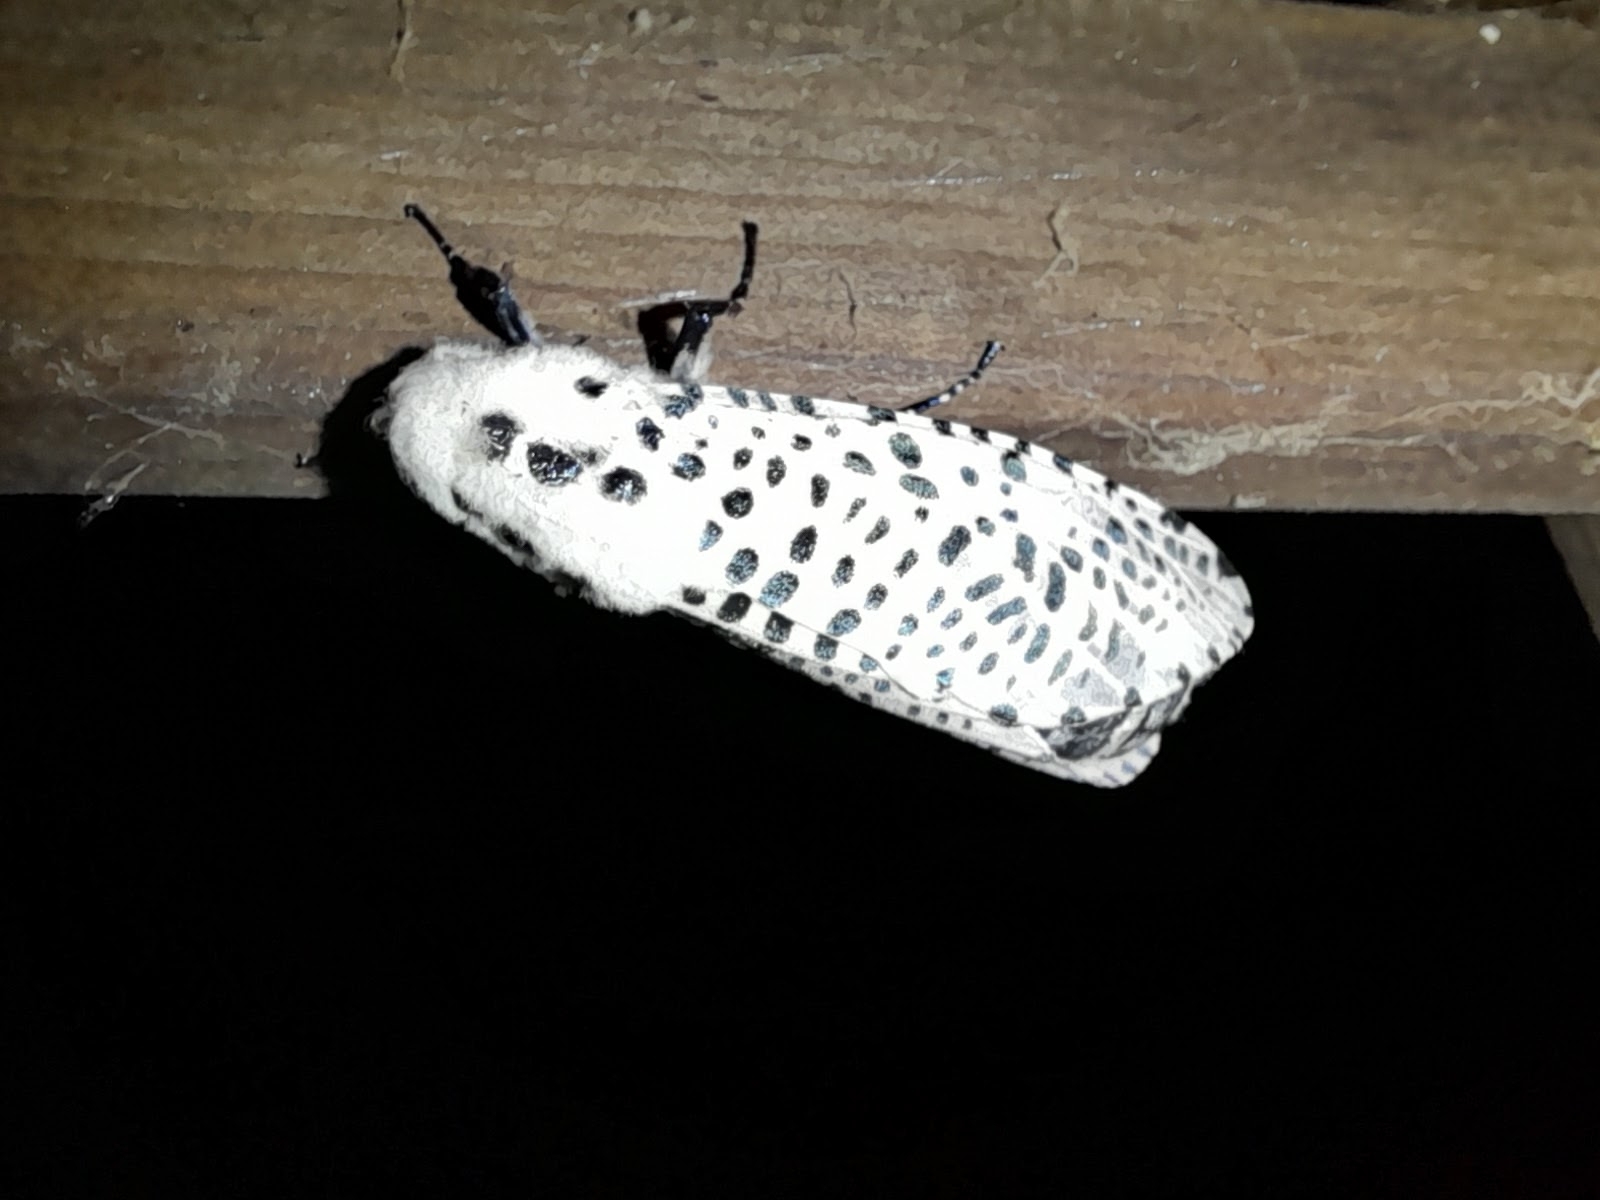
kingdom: Animalia
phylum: Arthropoda
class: Insecta
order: Lepidoptera
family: Cossidae
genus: Zeuzera
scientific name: Zeuzera pyrina
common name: Leopard moth
